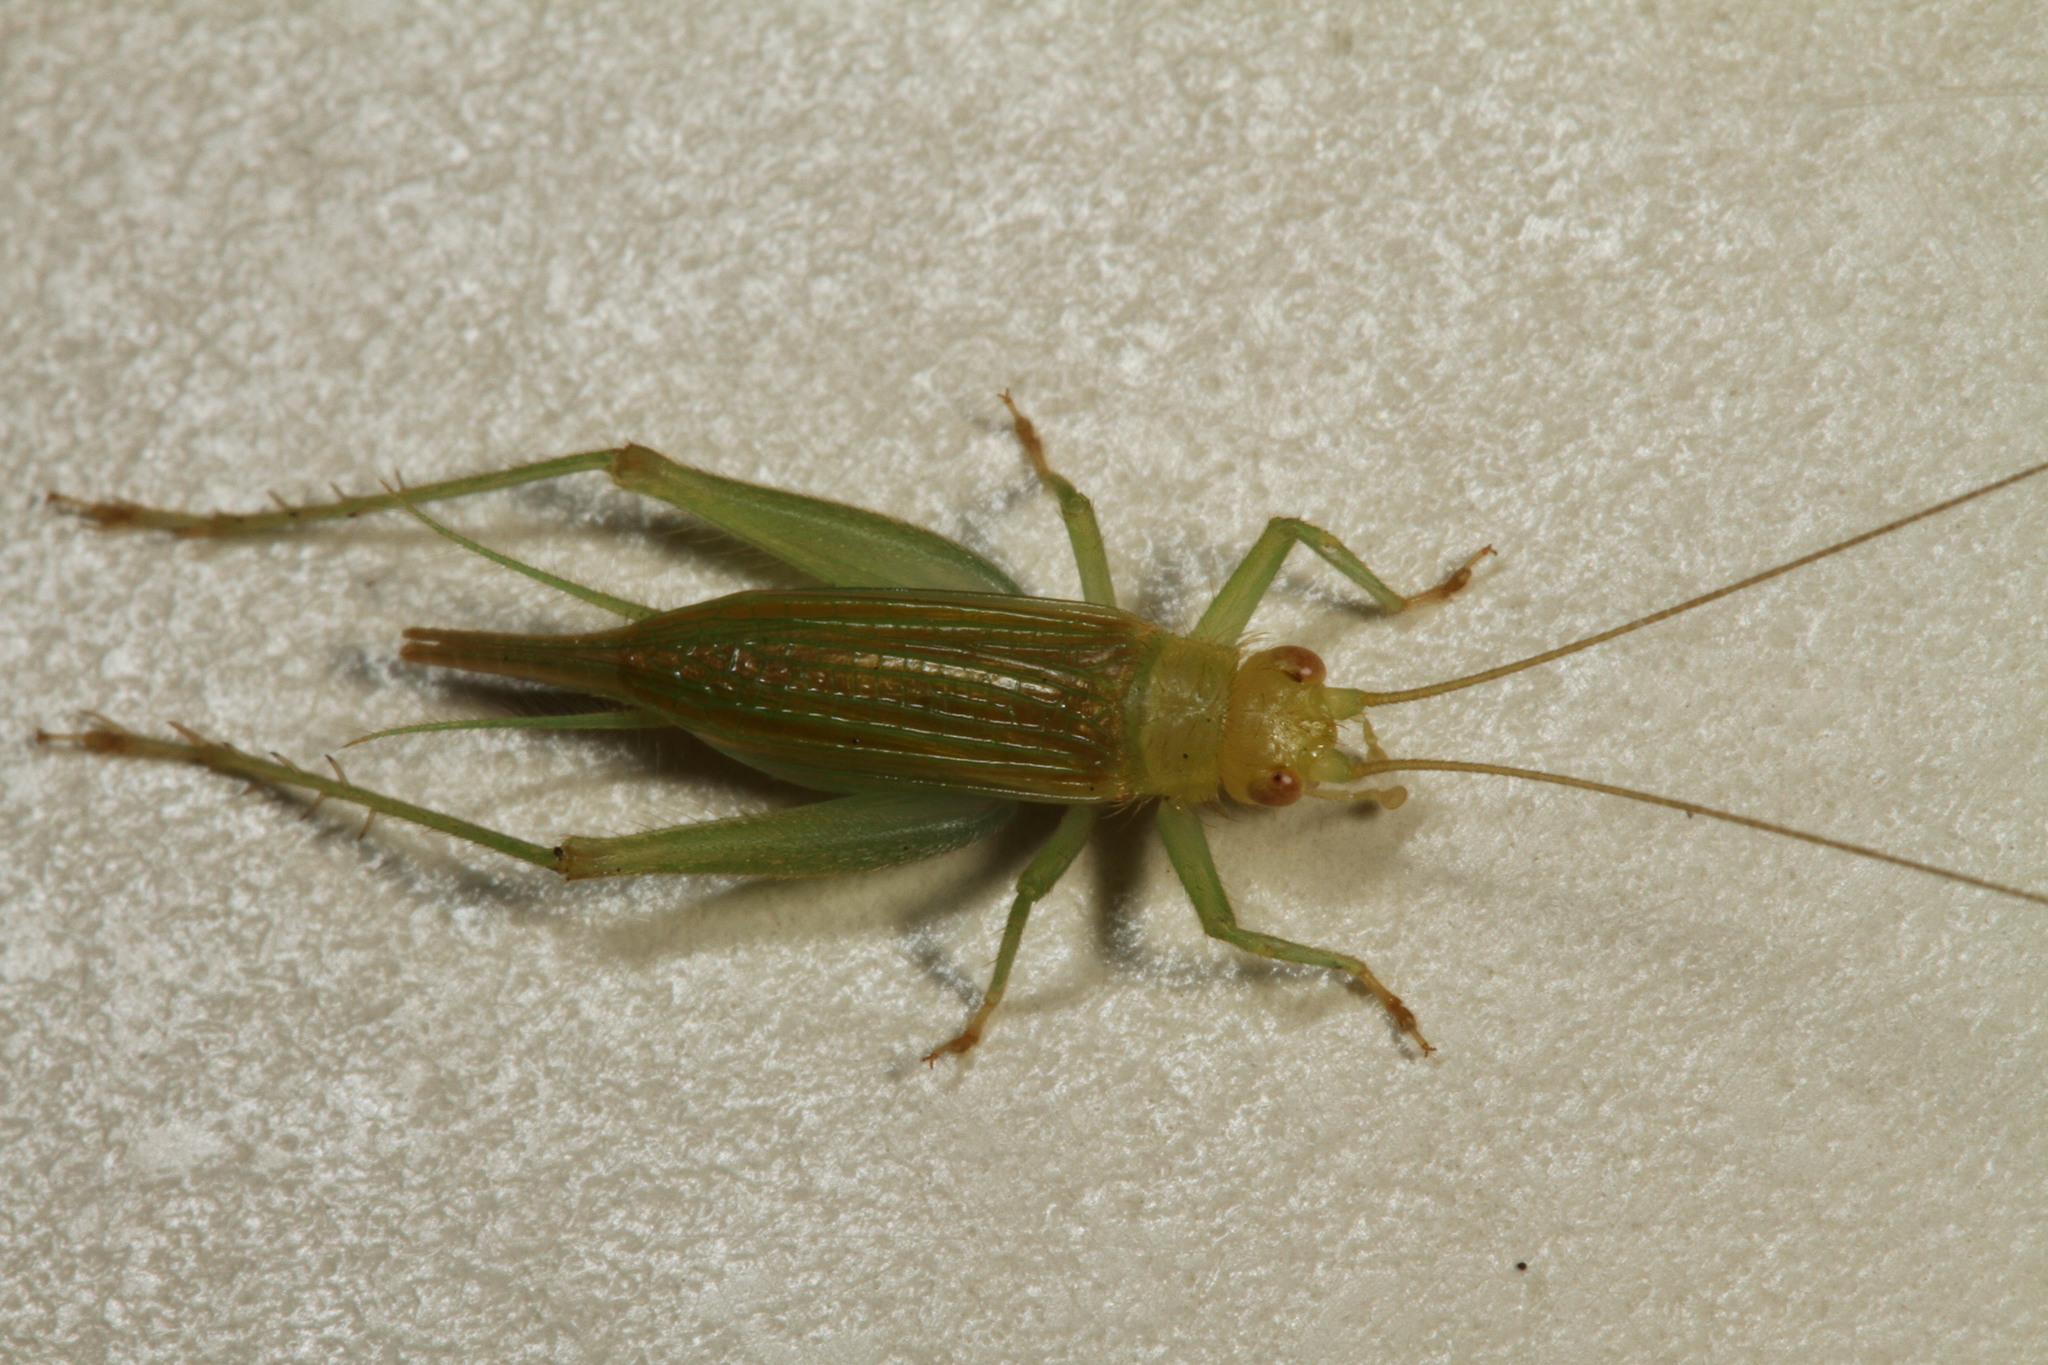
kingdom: Animalia
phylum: Arthropoda
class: Insecta
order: Orthoptera
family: Trigonidiidae
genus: Cyrtoxipha
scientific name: Cyrtoxipha columbiana
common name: Columbian trig
